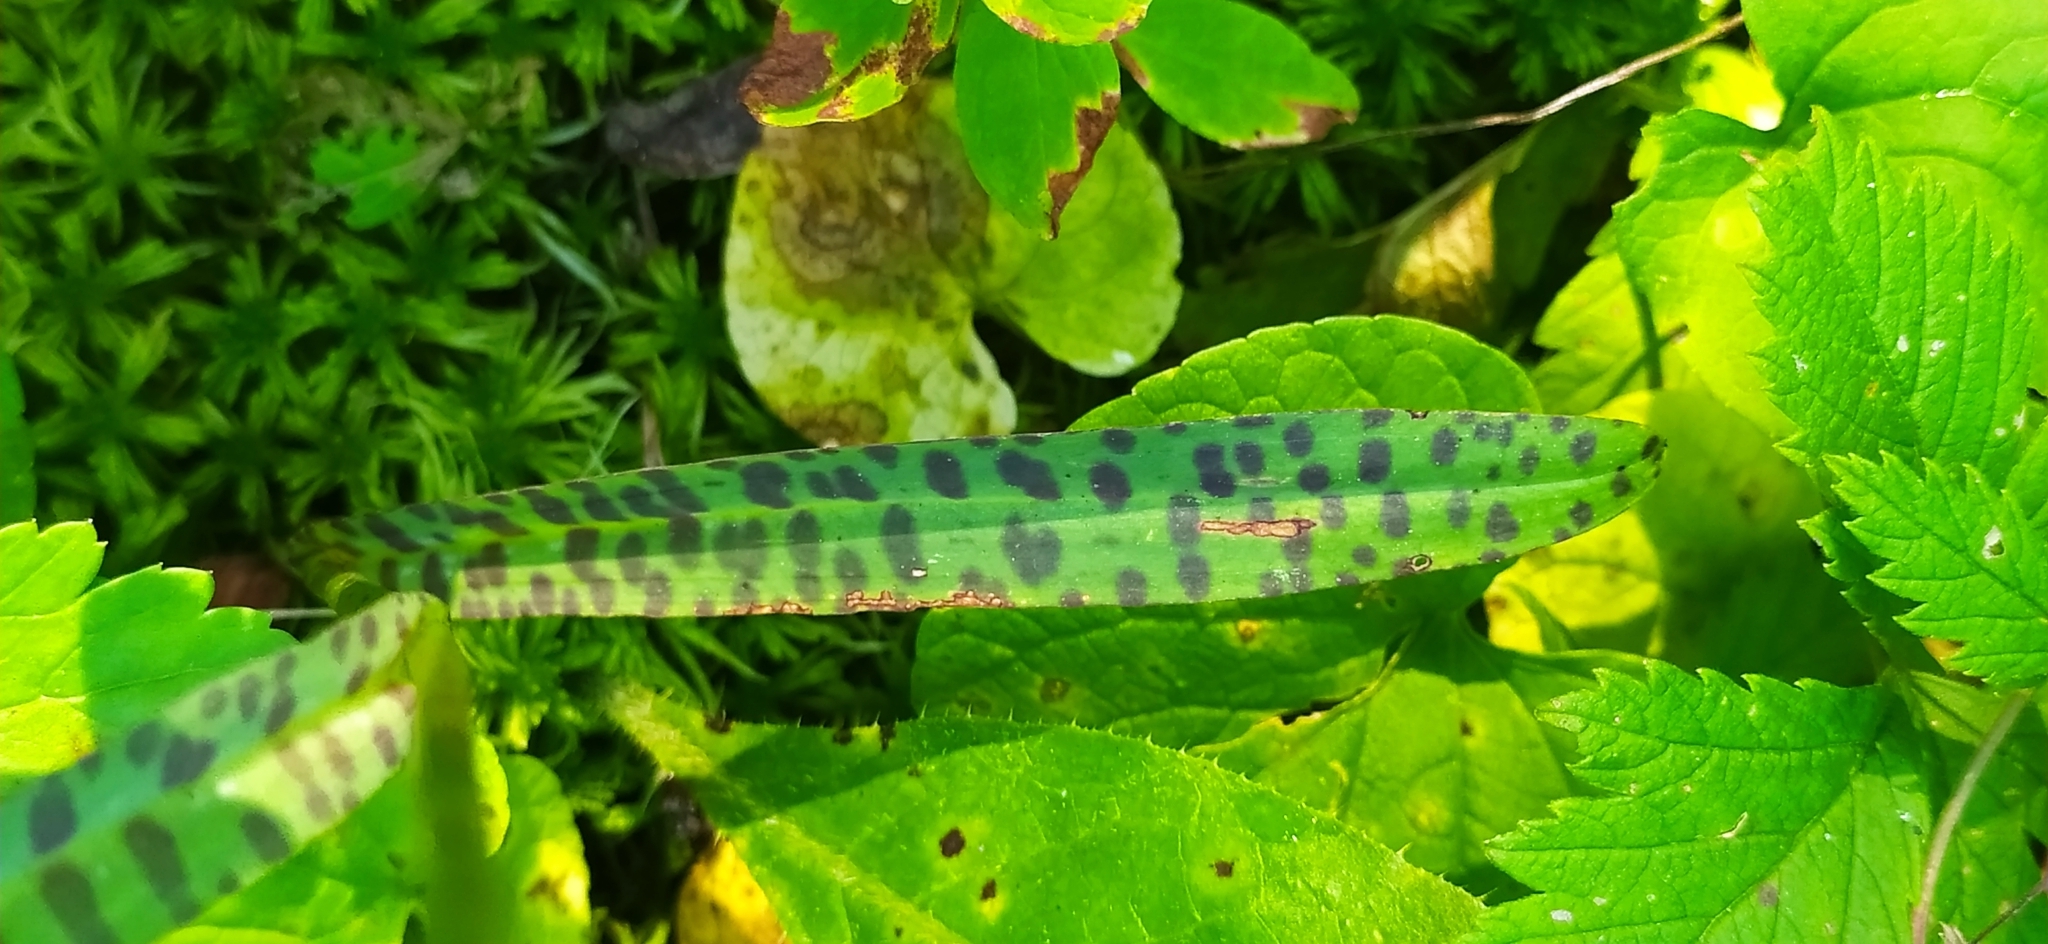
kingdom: Plantae
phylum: Tracheophyta
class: Liliopsida
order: Asparagales
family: Orchidaceae
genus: Dactylorhiza
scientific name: Dactylorhiza maculata
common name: Heath spotted-orchid
